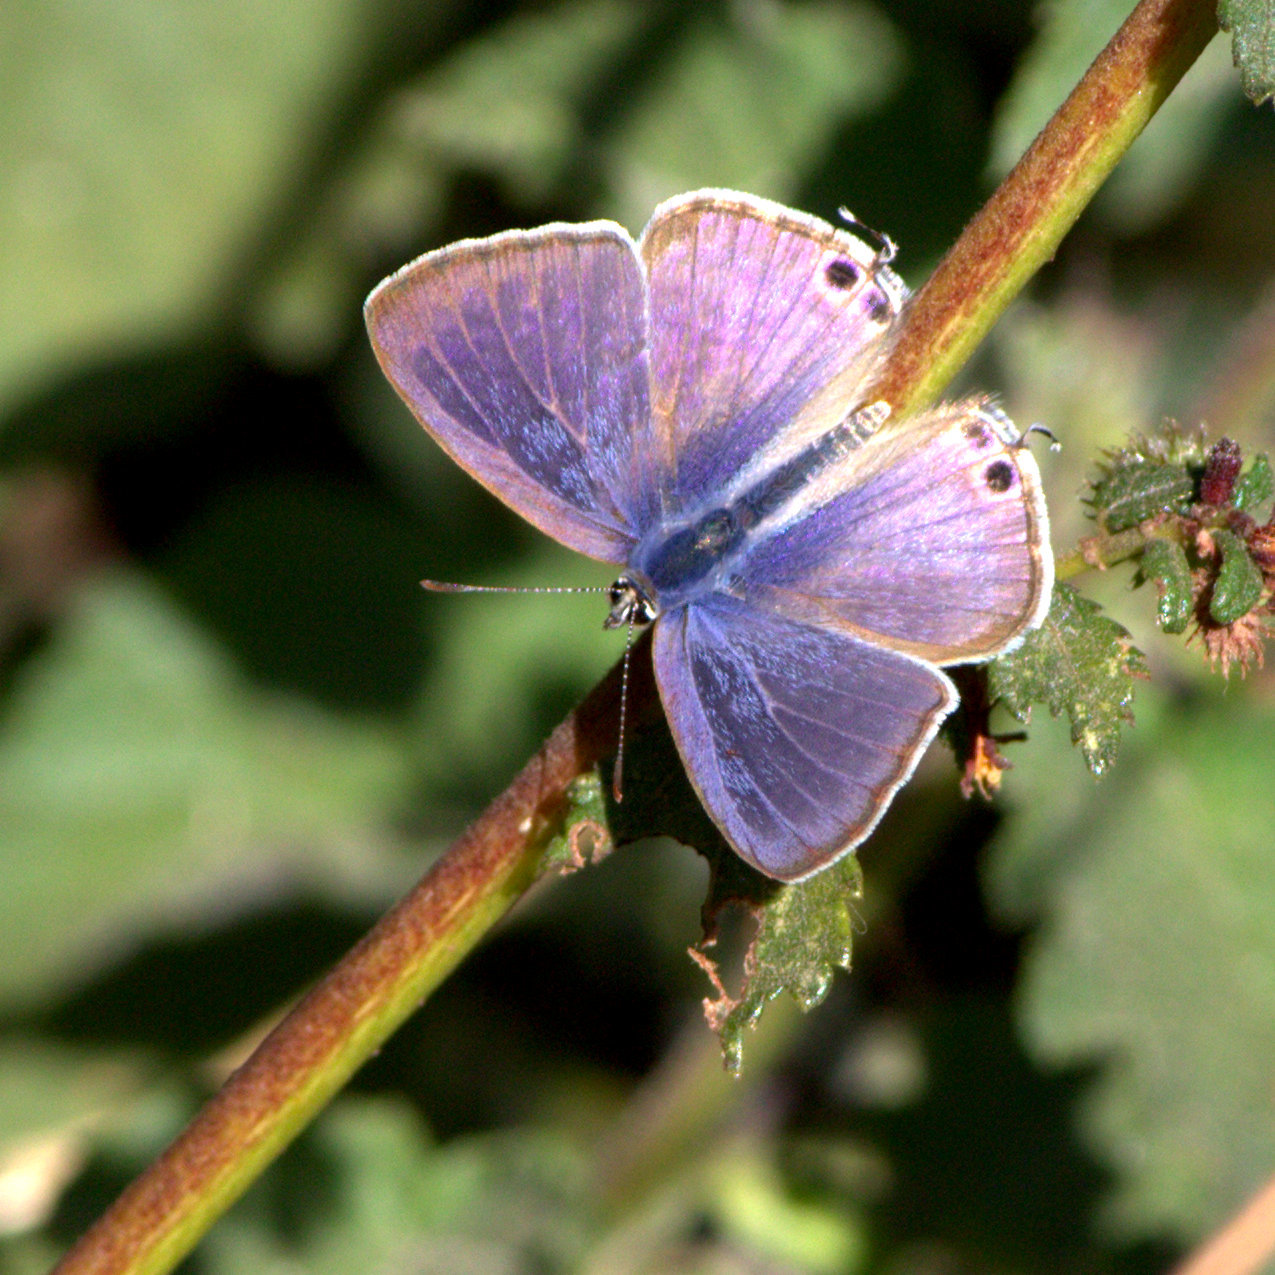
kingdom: Animalia
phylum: Arthropoda
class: Insecta
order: Lepidoptera
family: Lycaenidae
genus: Lampides
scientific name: Lampides boeticus
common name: Long-tailed blue
